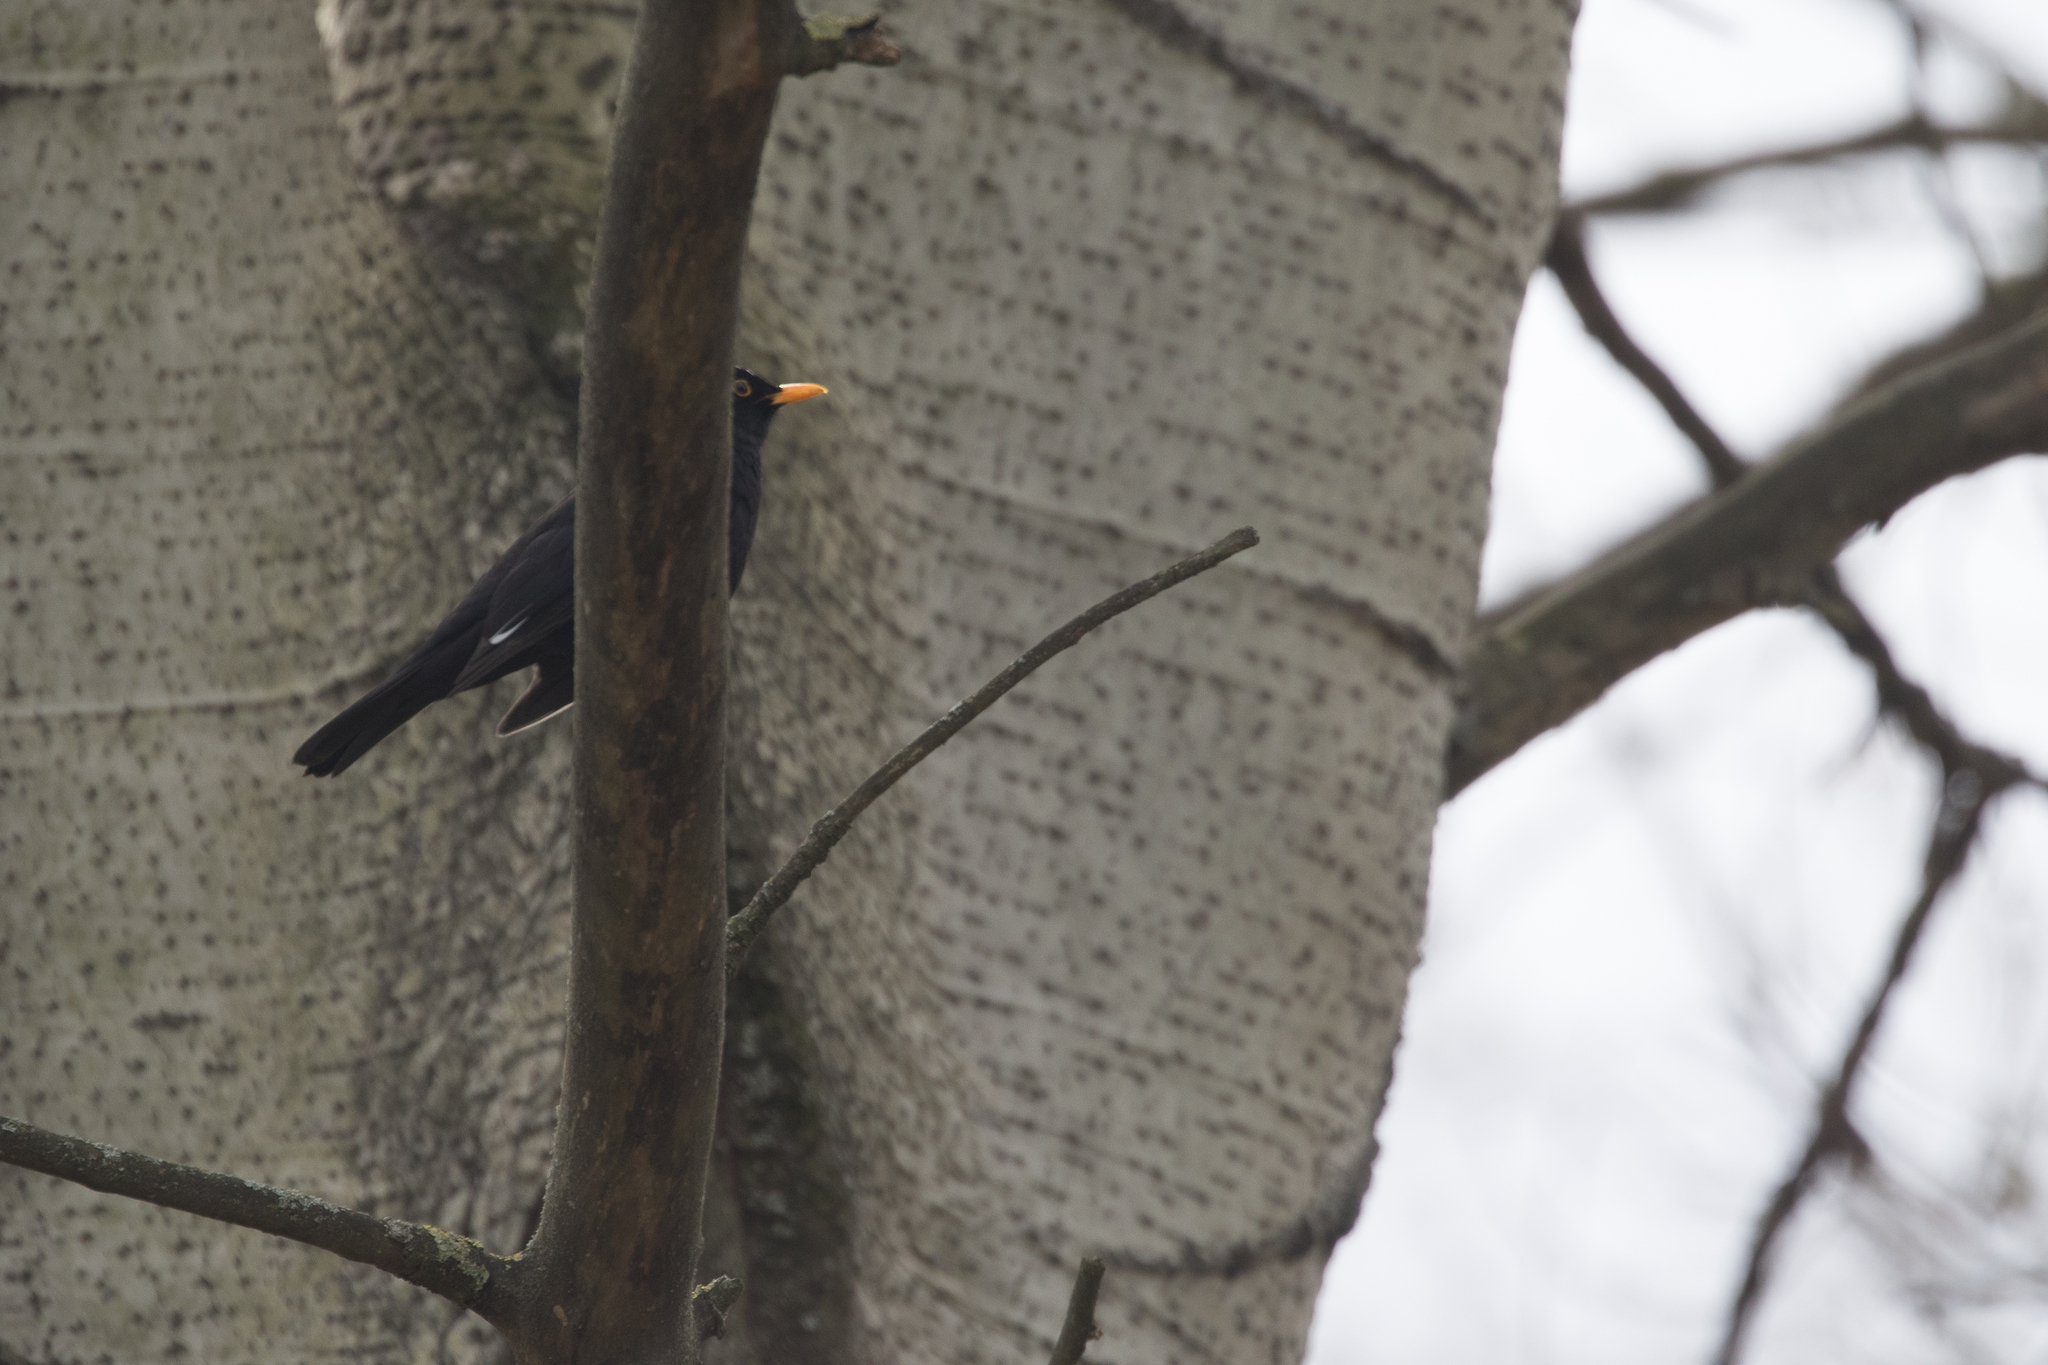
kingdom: Animalia
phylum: Chordata
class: Aves
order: Passeriformes
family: Turdidae
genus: Turdus
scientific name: Turdus merula
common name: Common blackbird
